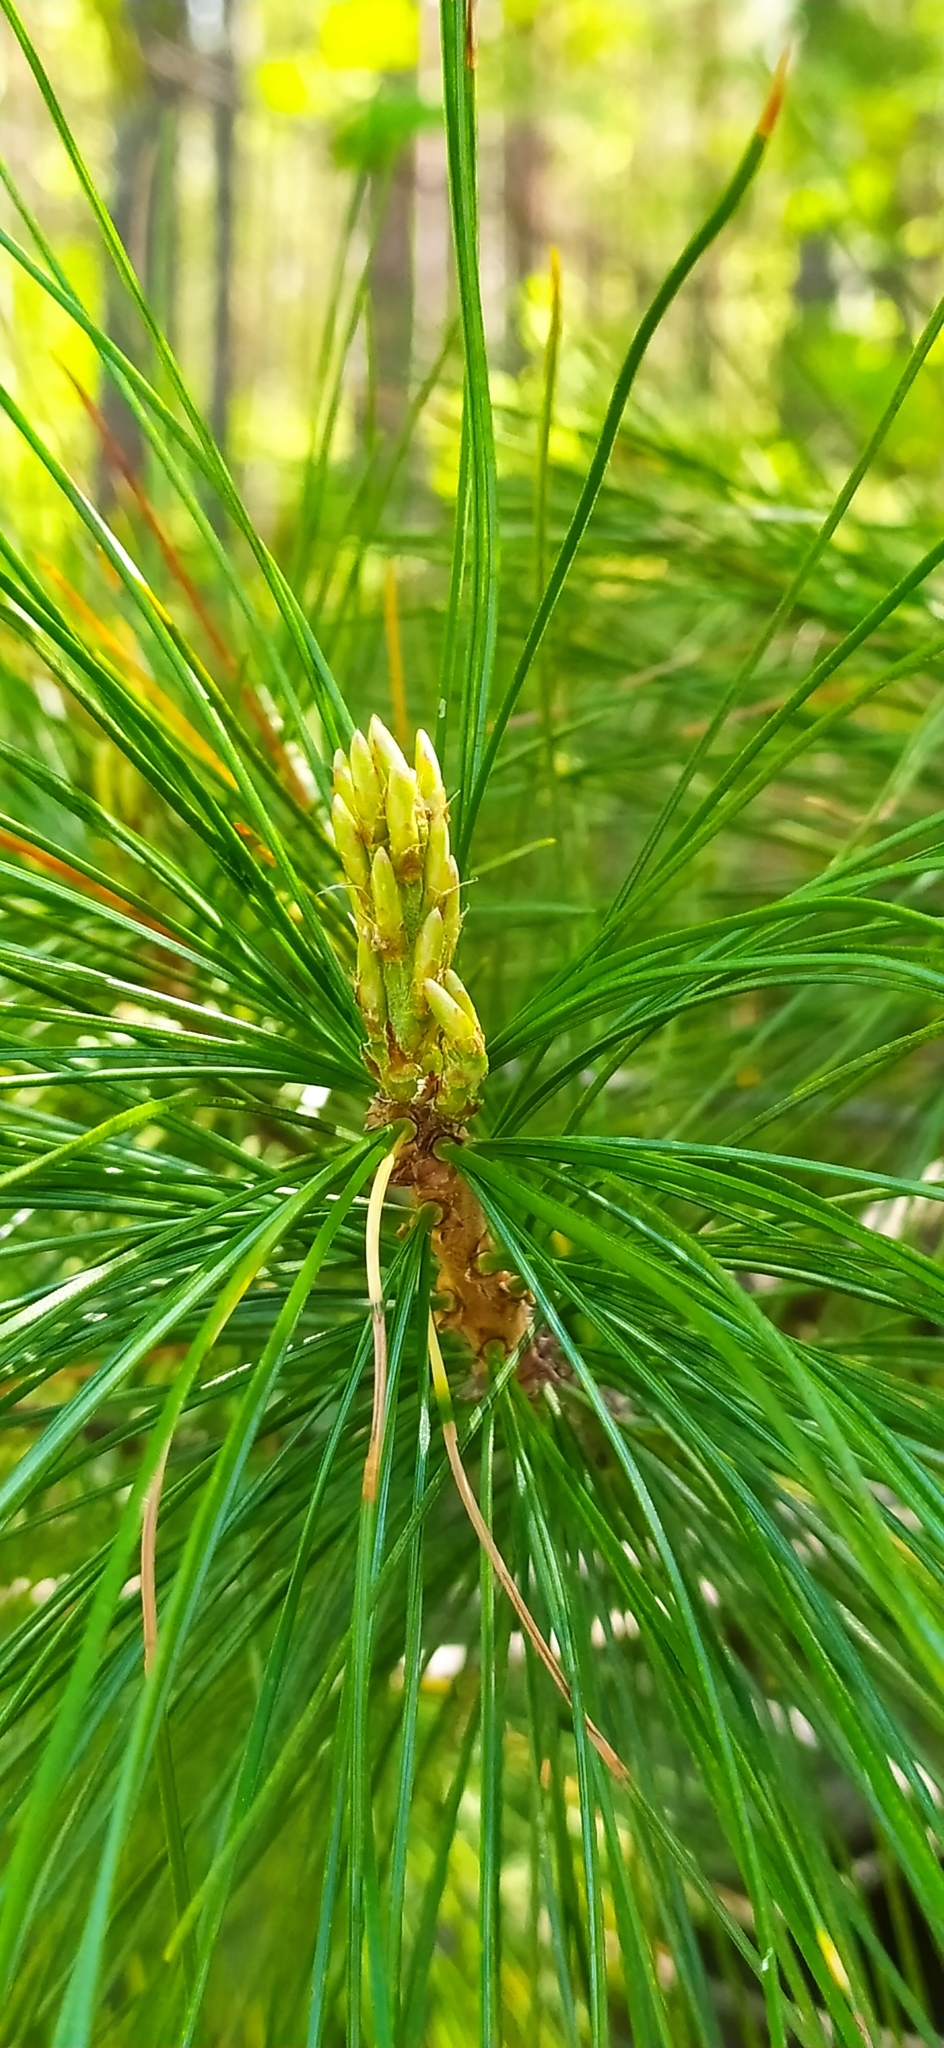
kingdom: Plantae
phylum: Tracheophyta
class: Pinopsida
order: Pinales
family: Pinaceae
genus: Pinus
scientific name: Pinus sibirica
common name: Siberian pine
